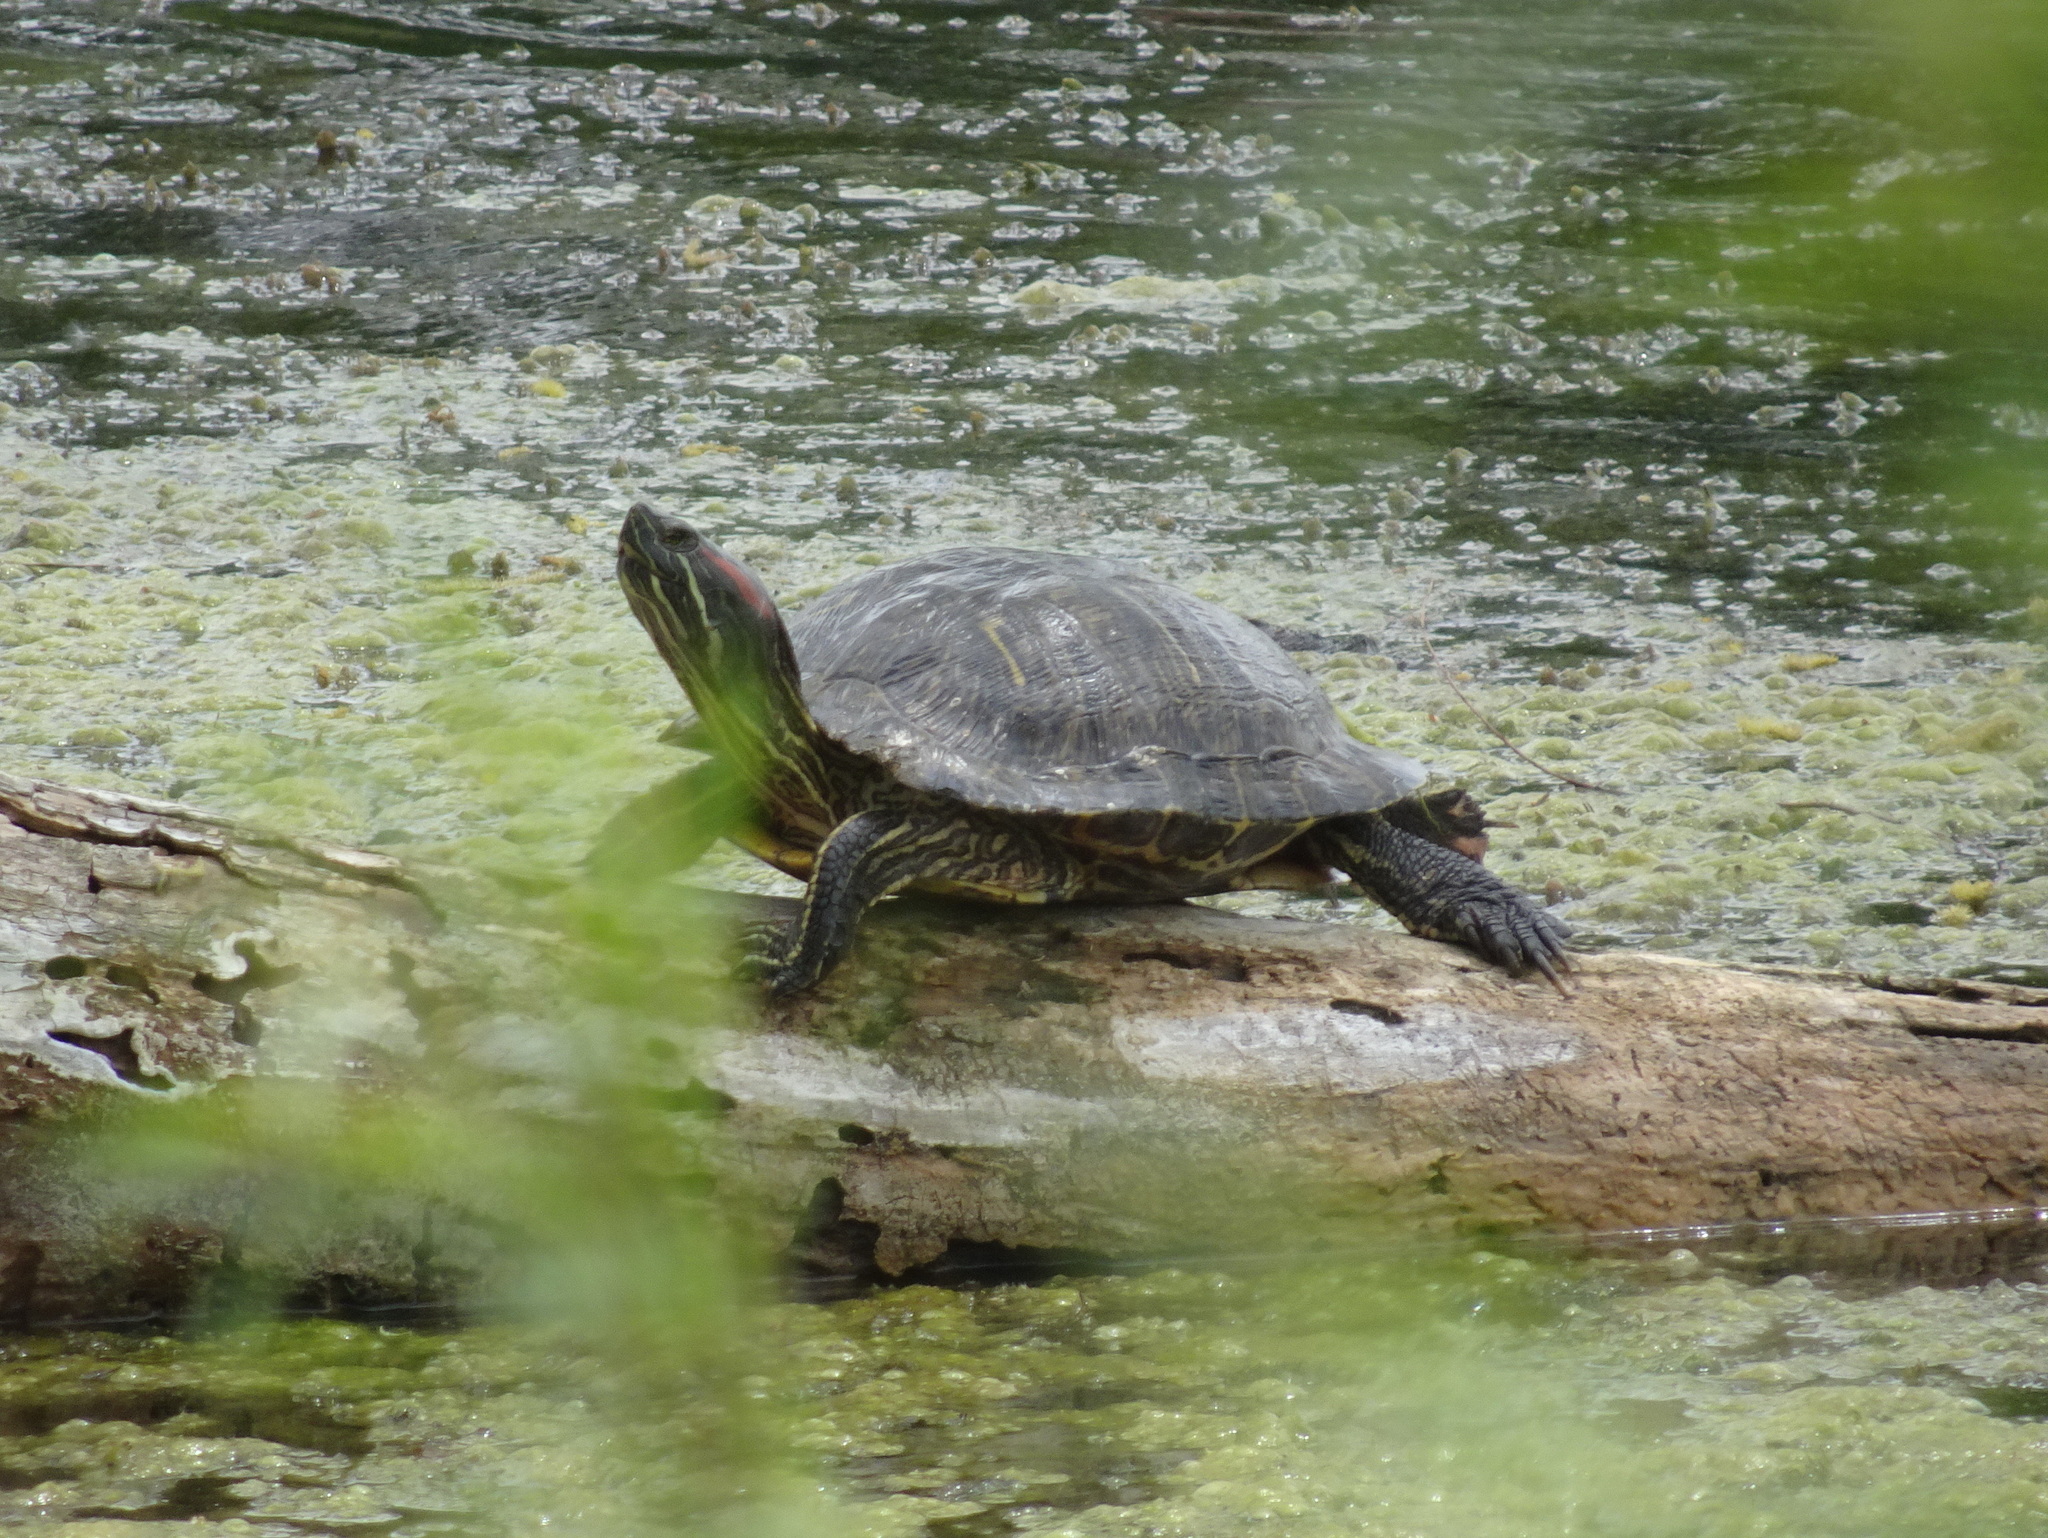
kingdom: Animalia
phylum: Chordata
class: Testudines
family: Emydidae
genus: Trachemys
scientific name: Trachemys scripta
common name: Slider
